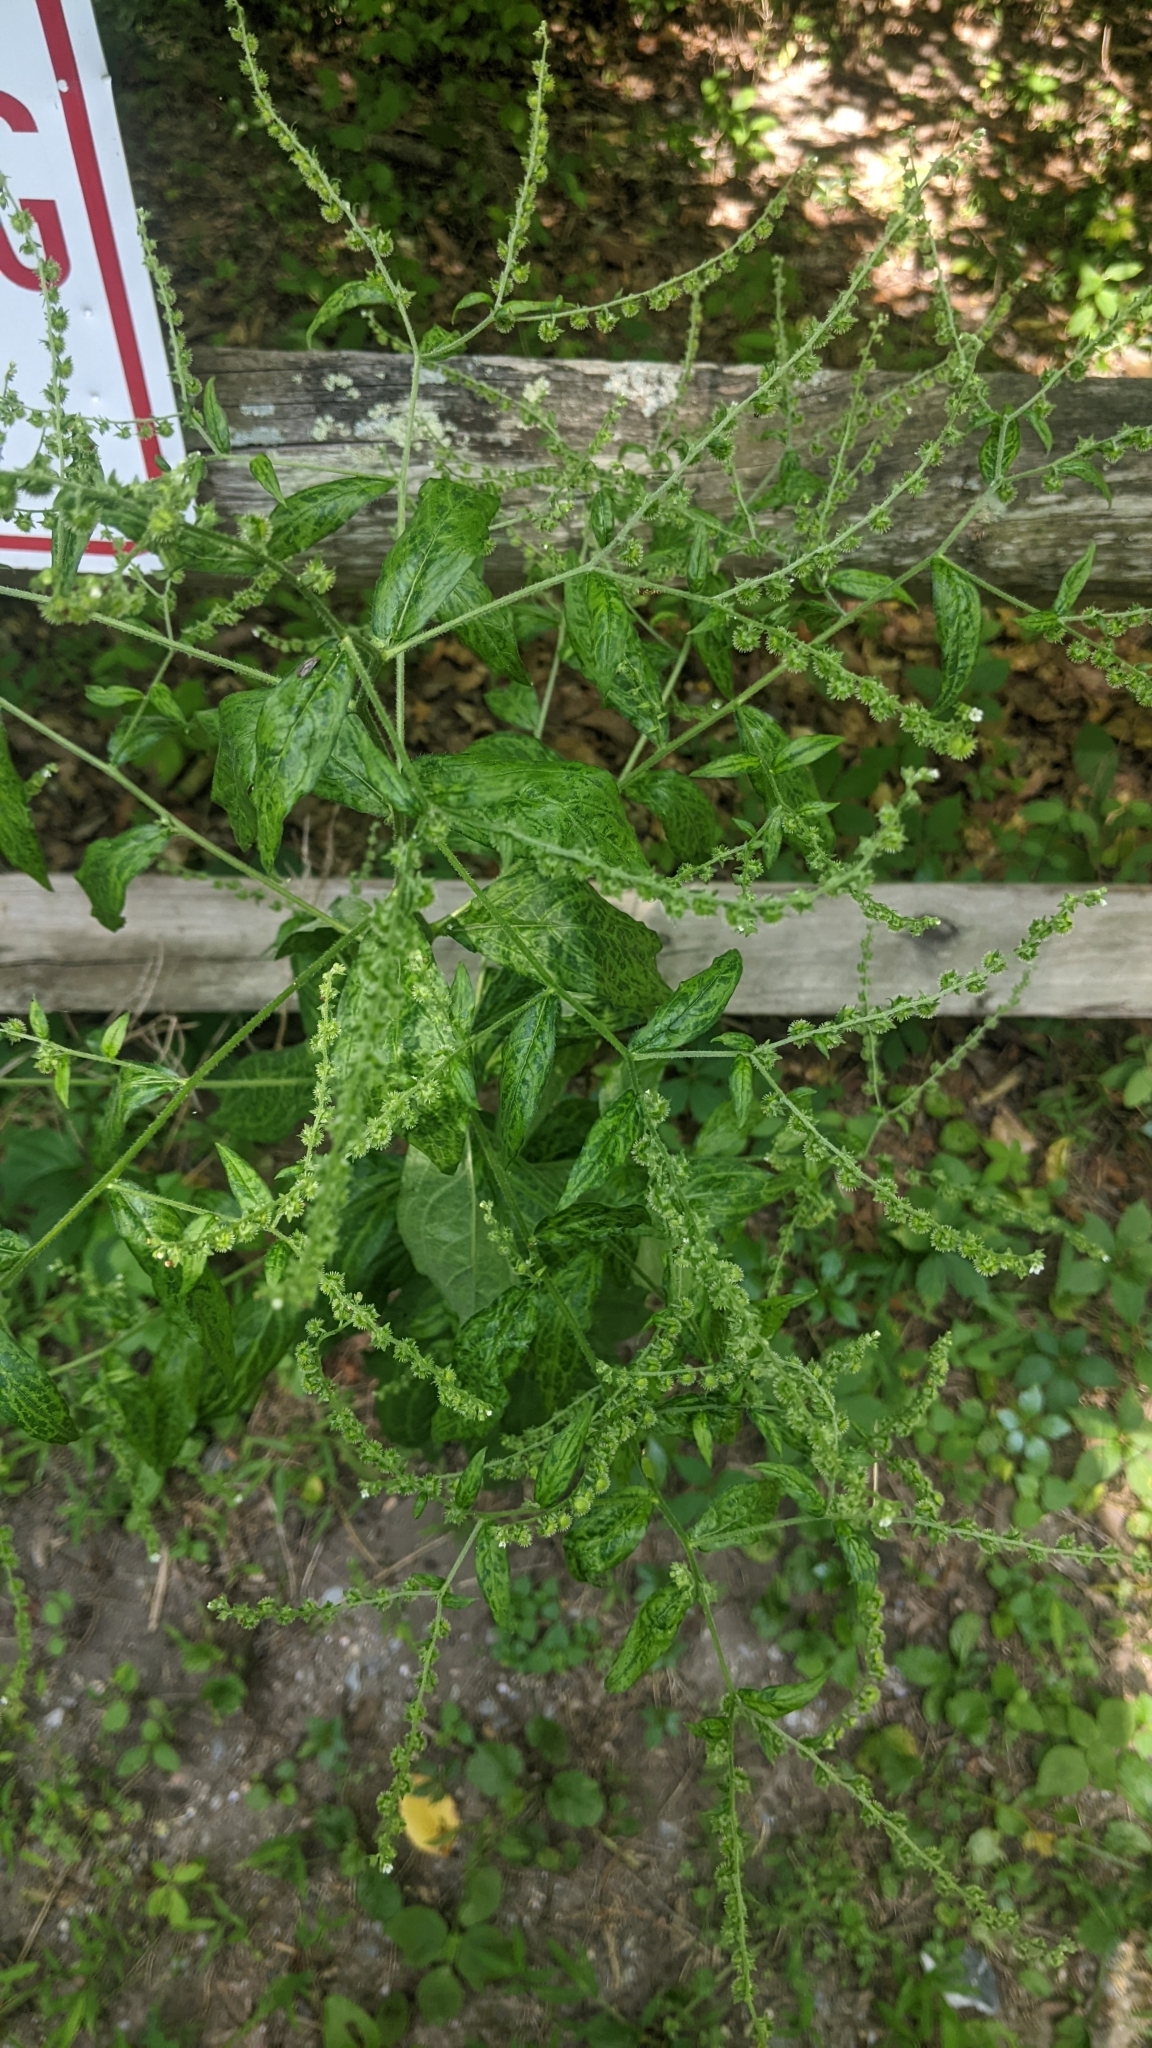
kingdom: Plantae
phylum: Tracheophyta
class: Magnoliopsida
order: Boraginales
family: Boraginaceae
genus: Hackelia
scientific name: Hackelia virginiana
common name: Beggar's-lice
